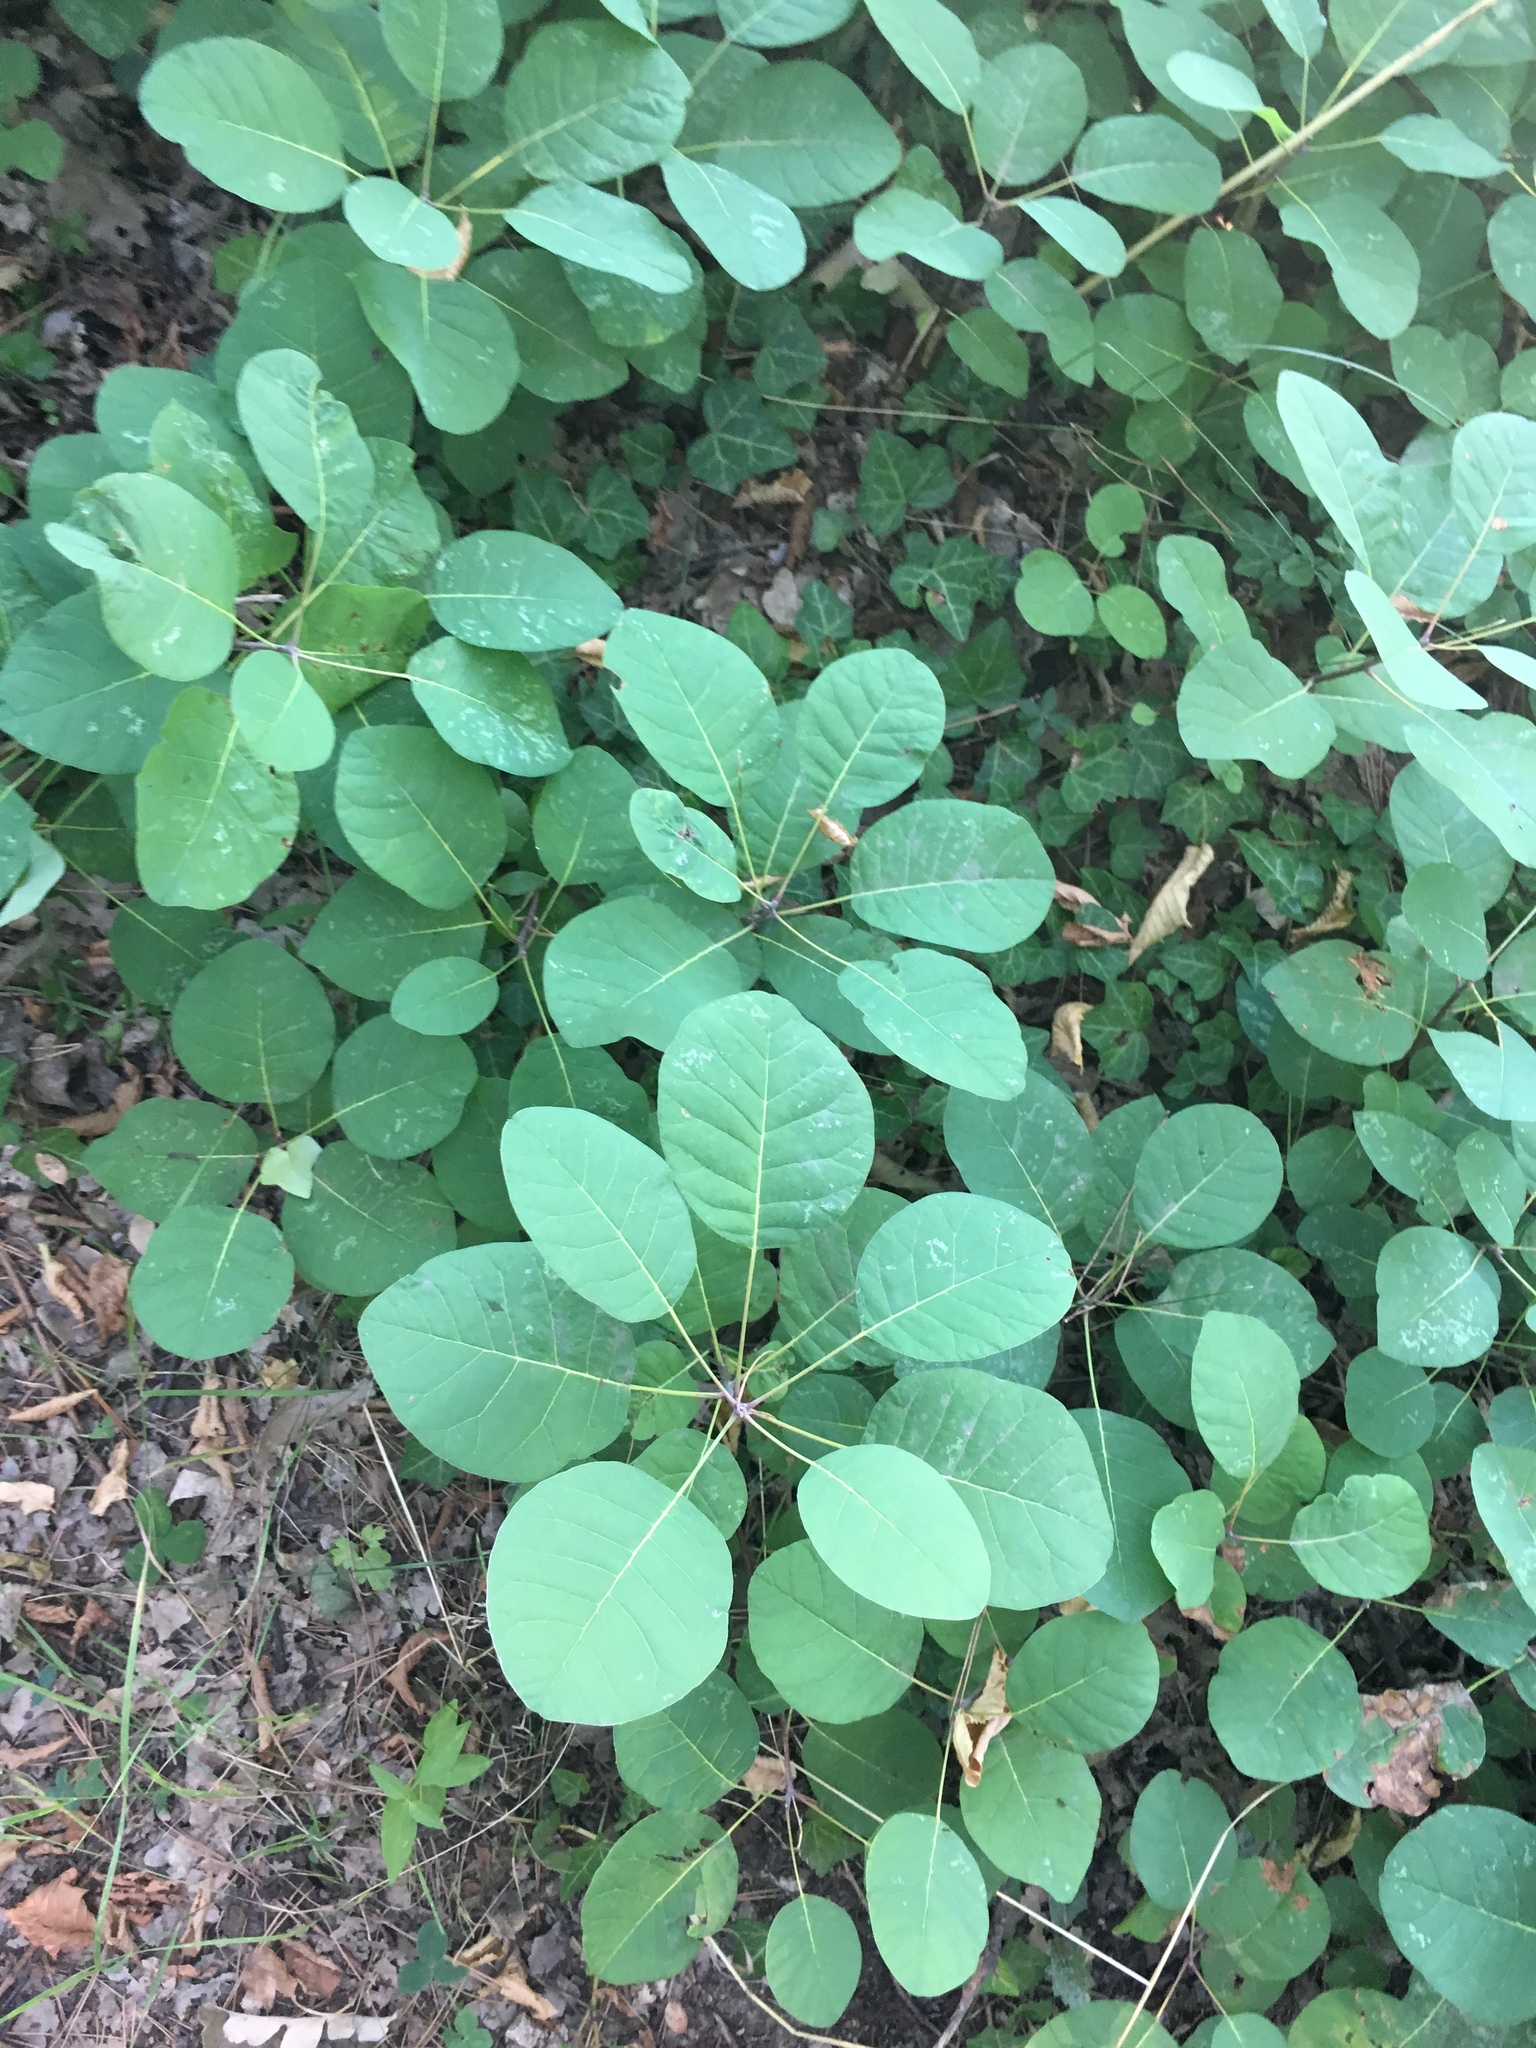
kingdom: Plantae
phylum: Tracheophyta
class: Magnoliopsida
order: Sapindales
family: Anacardiaceae
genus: Cotinus
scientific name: Cotinus coggygria
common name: Smoke-tree
